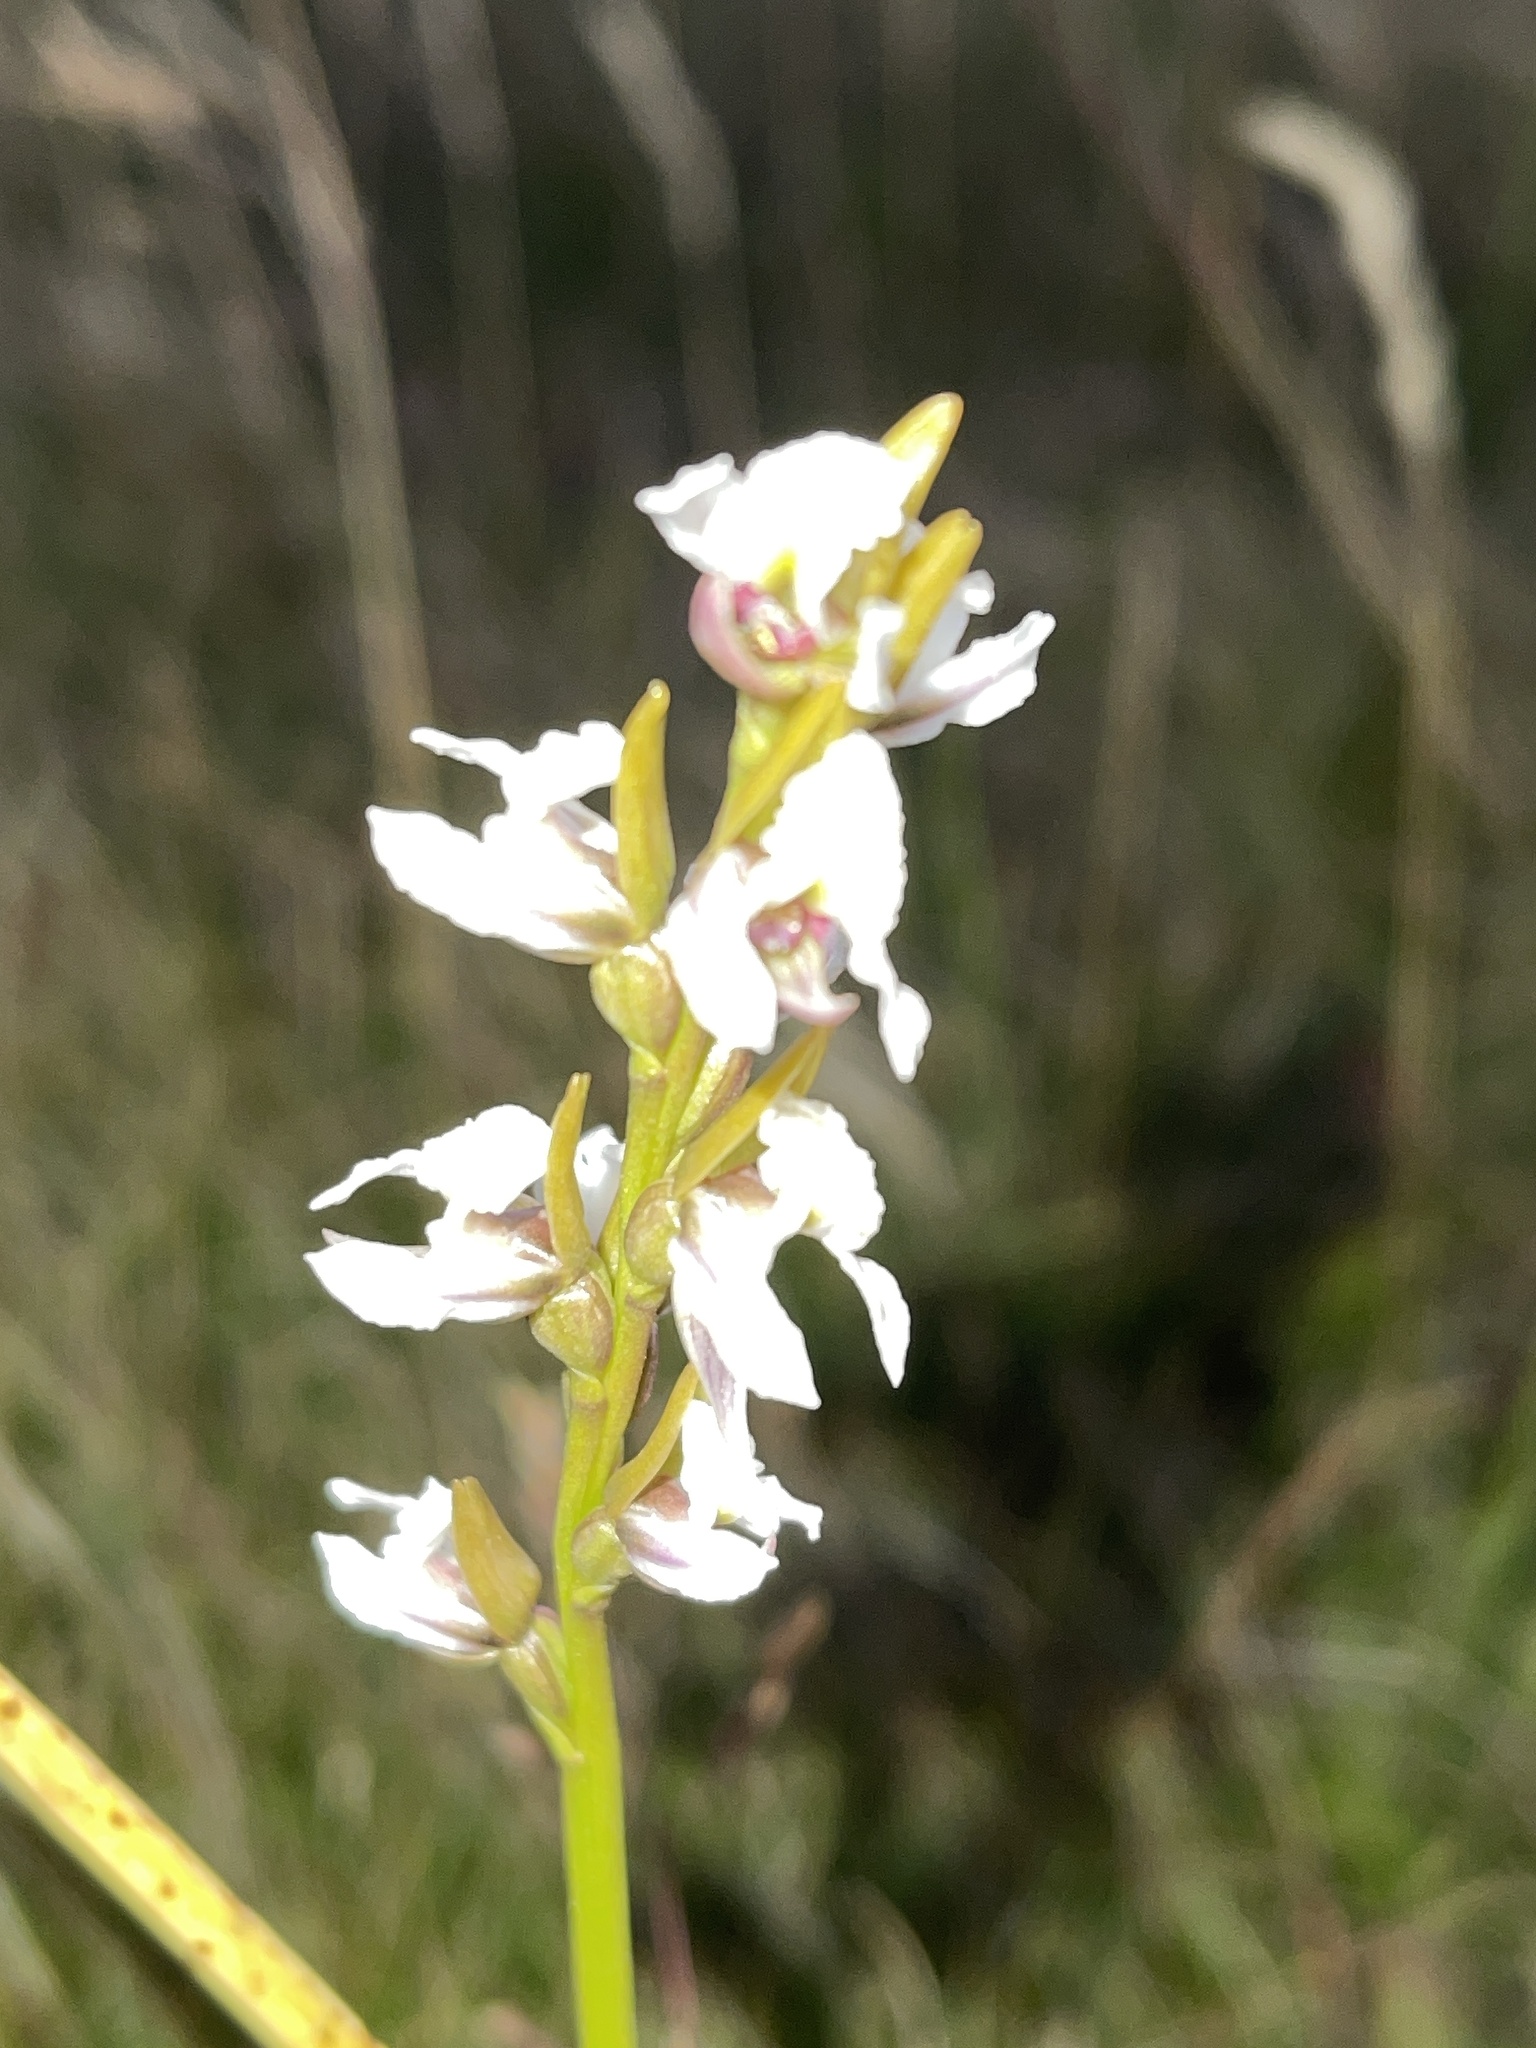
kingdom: Plantae
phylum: Tracheophyta
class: Liliopsida
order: Asparagales
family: Orchidaceae
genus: Prasophyllum
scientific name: Prasophyllum suttonii
